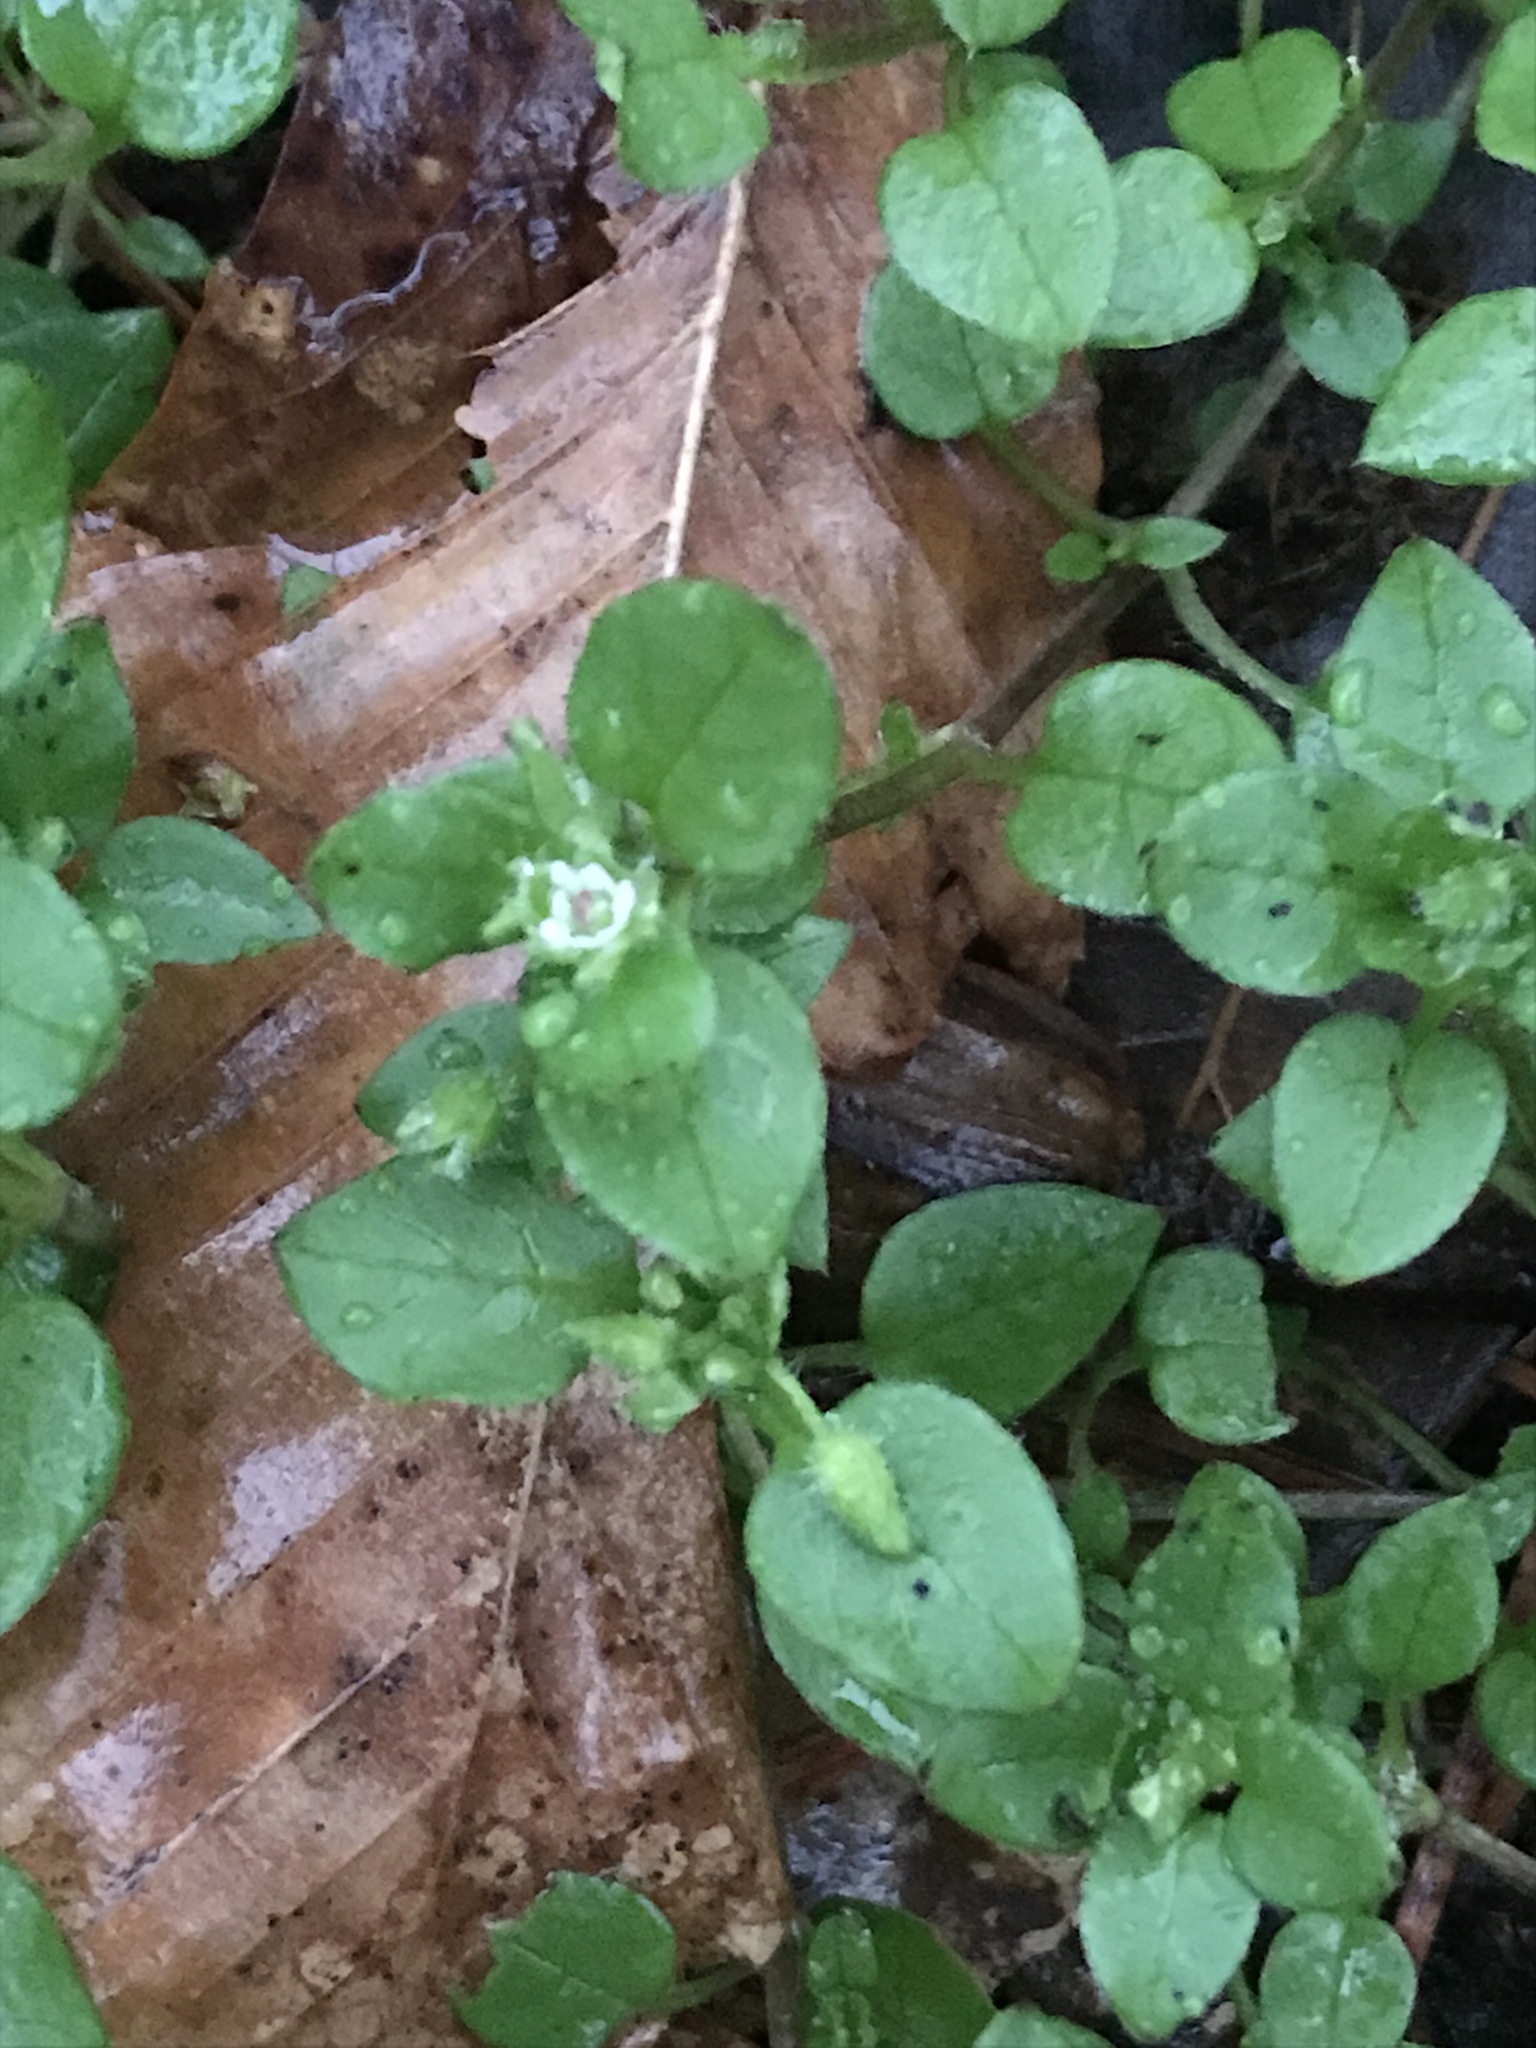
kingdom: Plantae
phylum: Tracheophyta
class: Magnoliopsida
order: Caryophyllales
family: Caryophyllaceae
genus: Stellaria
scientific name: Stellaria media
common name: Common chickweed
